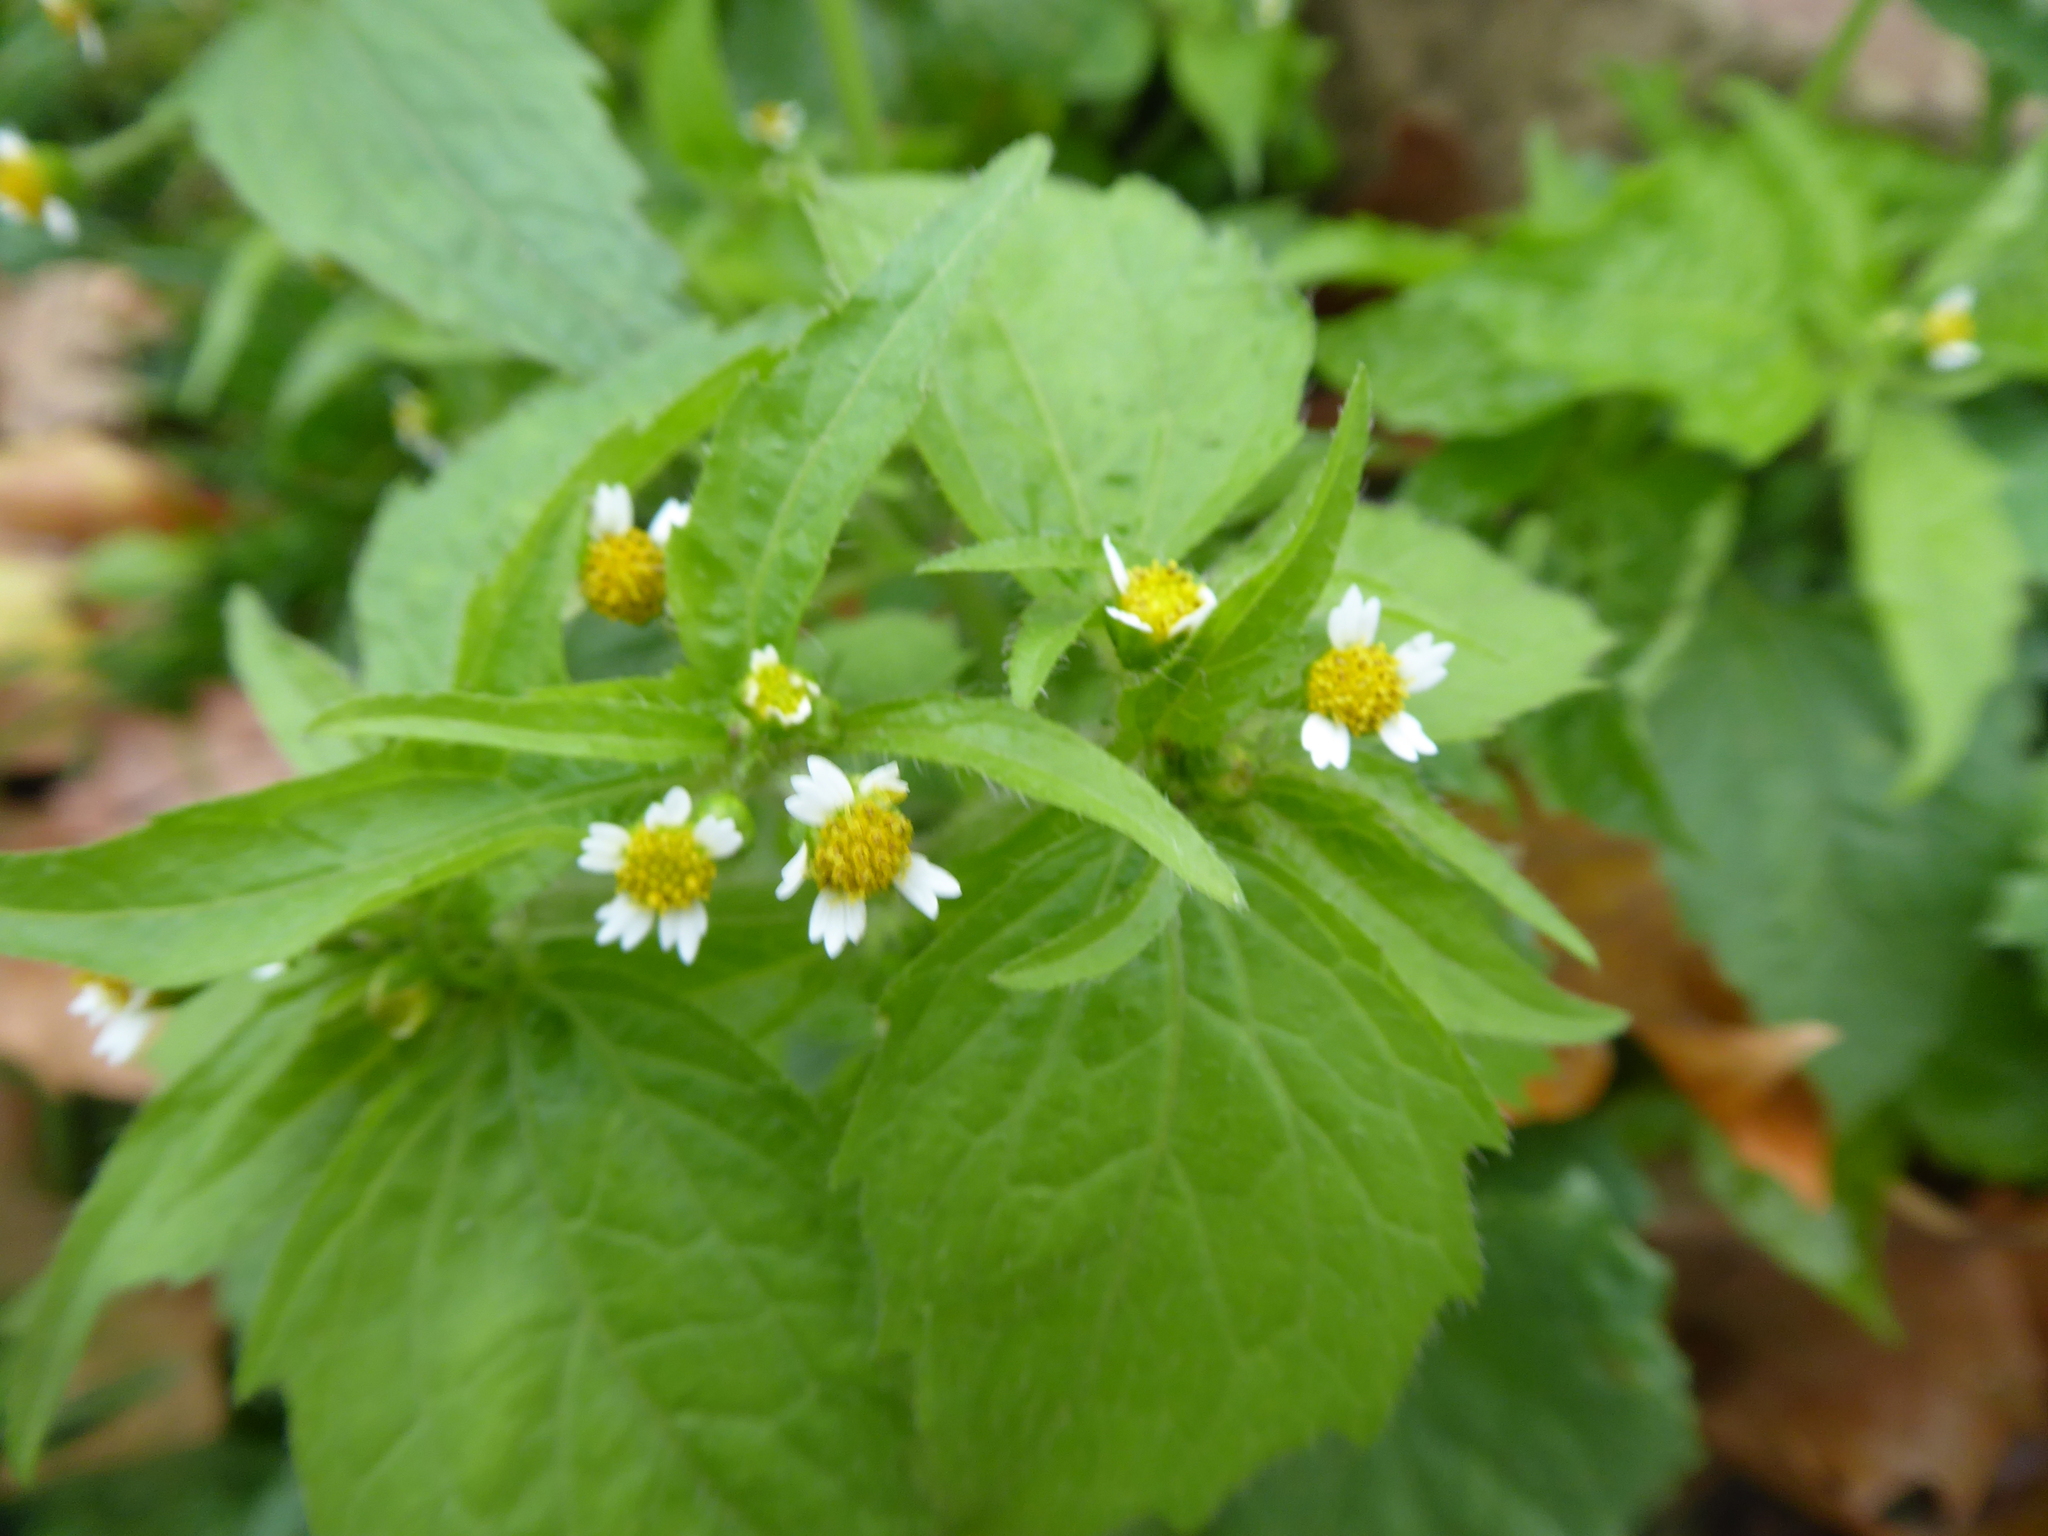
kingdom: Plantae
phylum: Tracheophyta
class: Magnoliopsida
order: Asterales
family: Asteraceae
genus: Galinsoga
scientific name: Galinsoga quadriradiata
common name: Shaggy soldier
